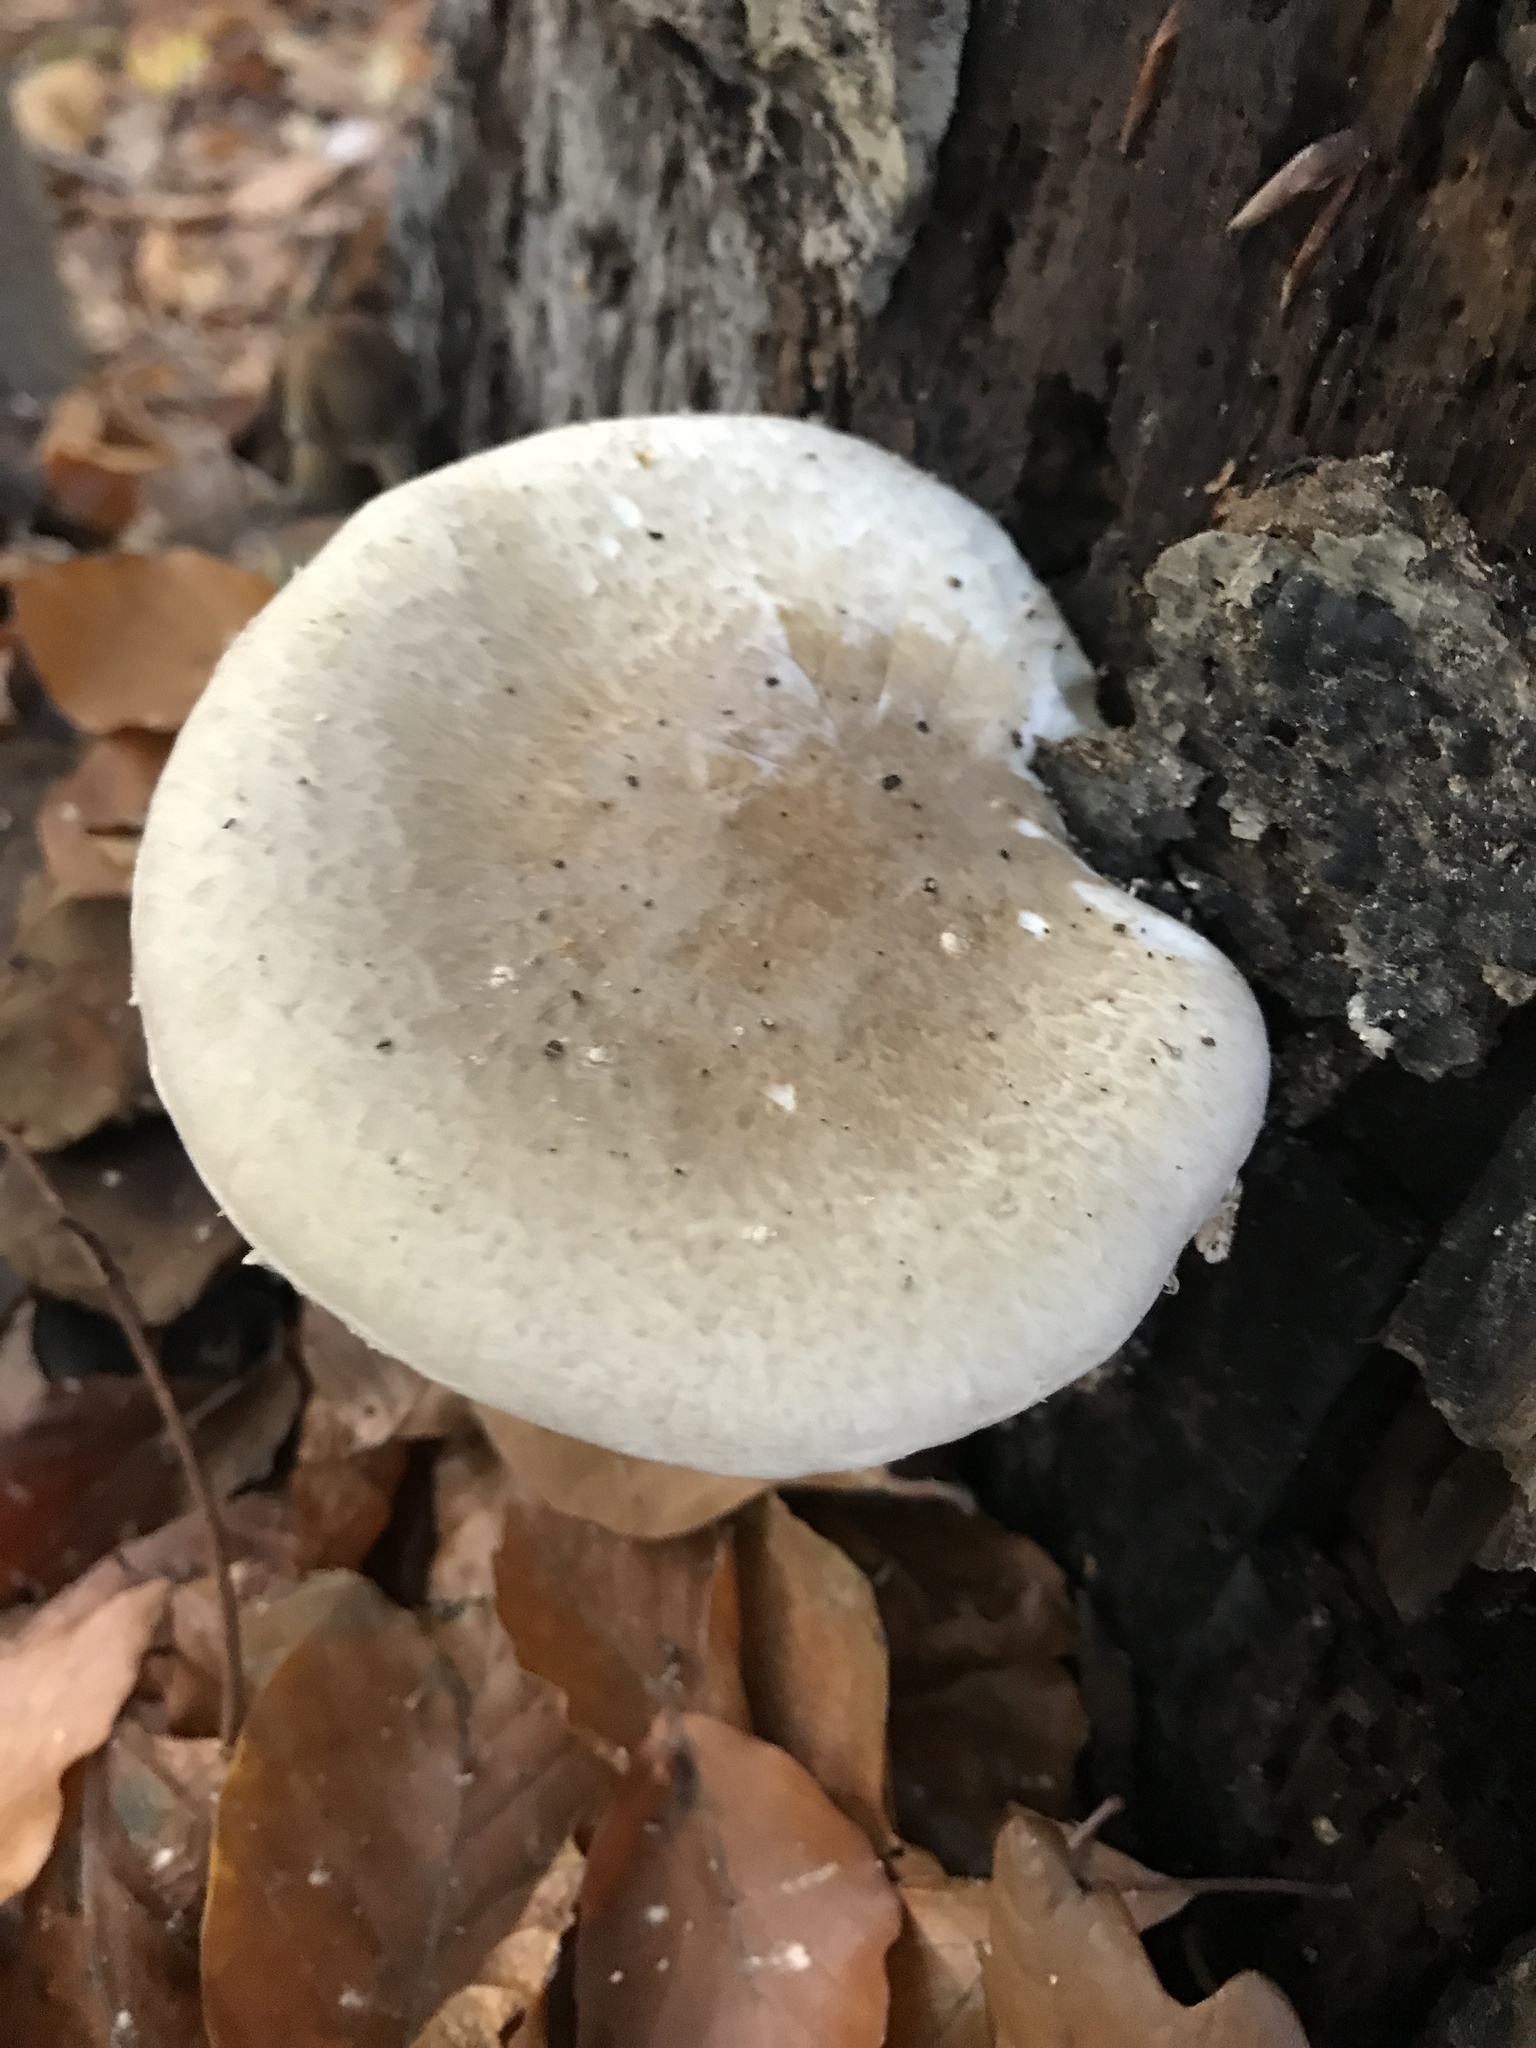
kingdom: Fungi
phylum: Basidiomycota
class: Agaricomycetes
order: Agaricales
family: Pleurotaceae
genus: Pleurotus
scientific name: Pleurotus dryinus
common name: Veiled oyster
